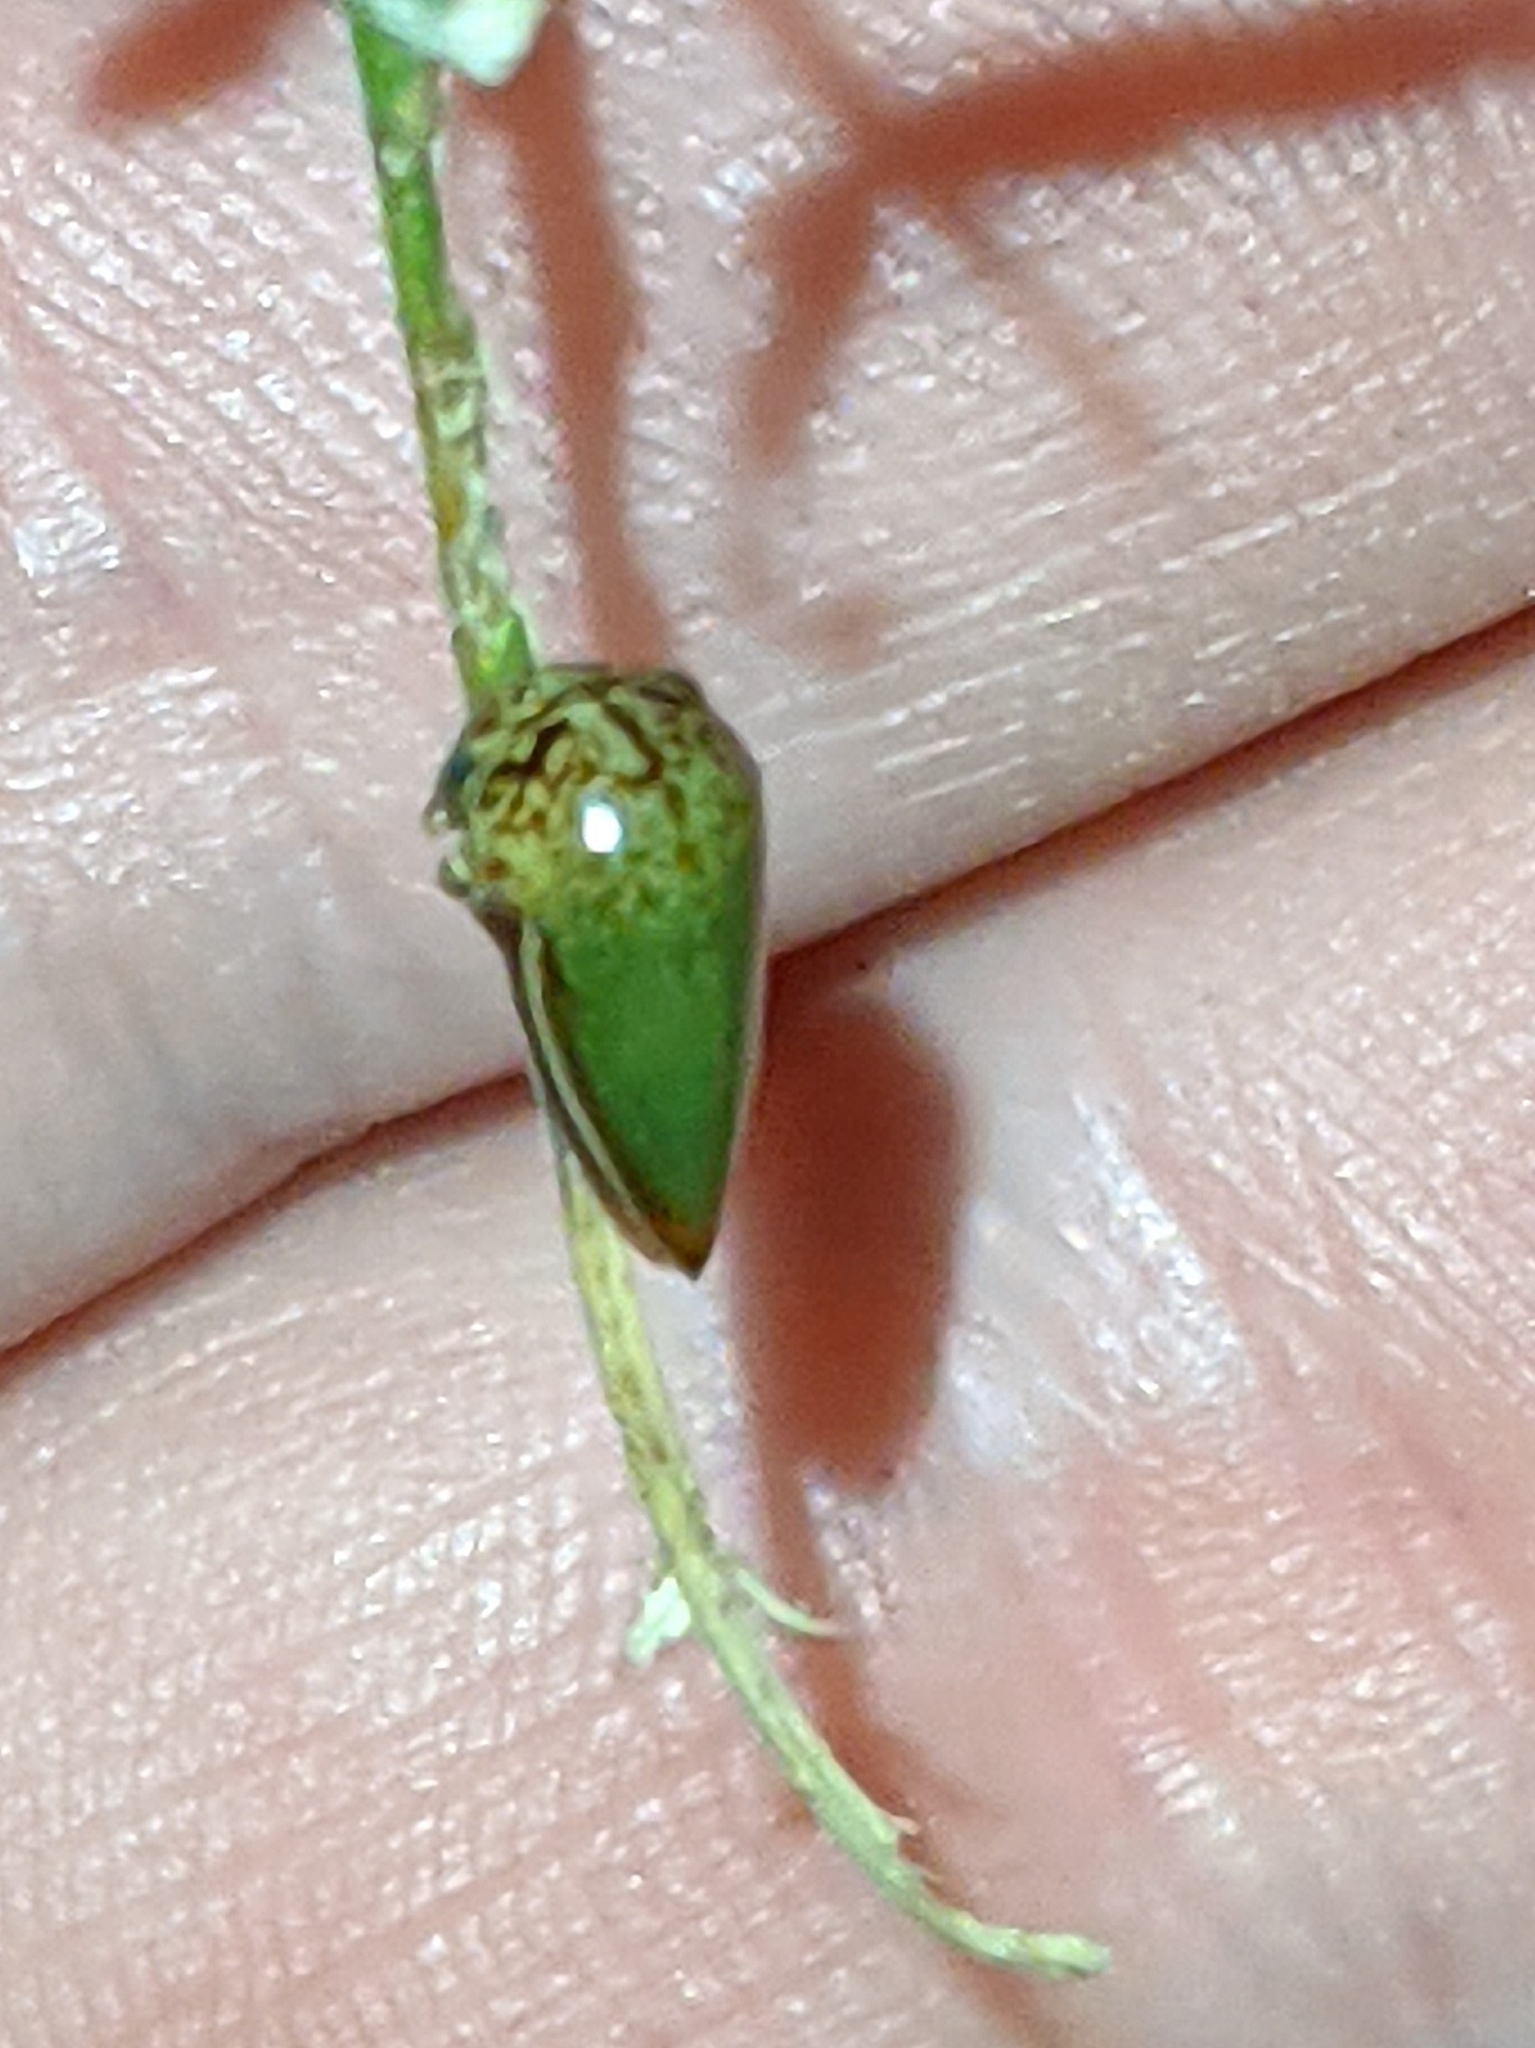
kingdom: Animalia
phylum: Arthropoda
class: Insecta
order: Hemiptera
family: Membracidae
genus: Stictopelta
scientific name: Stictopelta marmorata
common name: Treehopper
